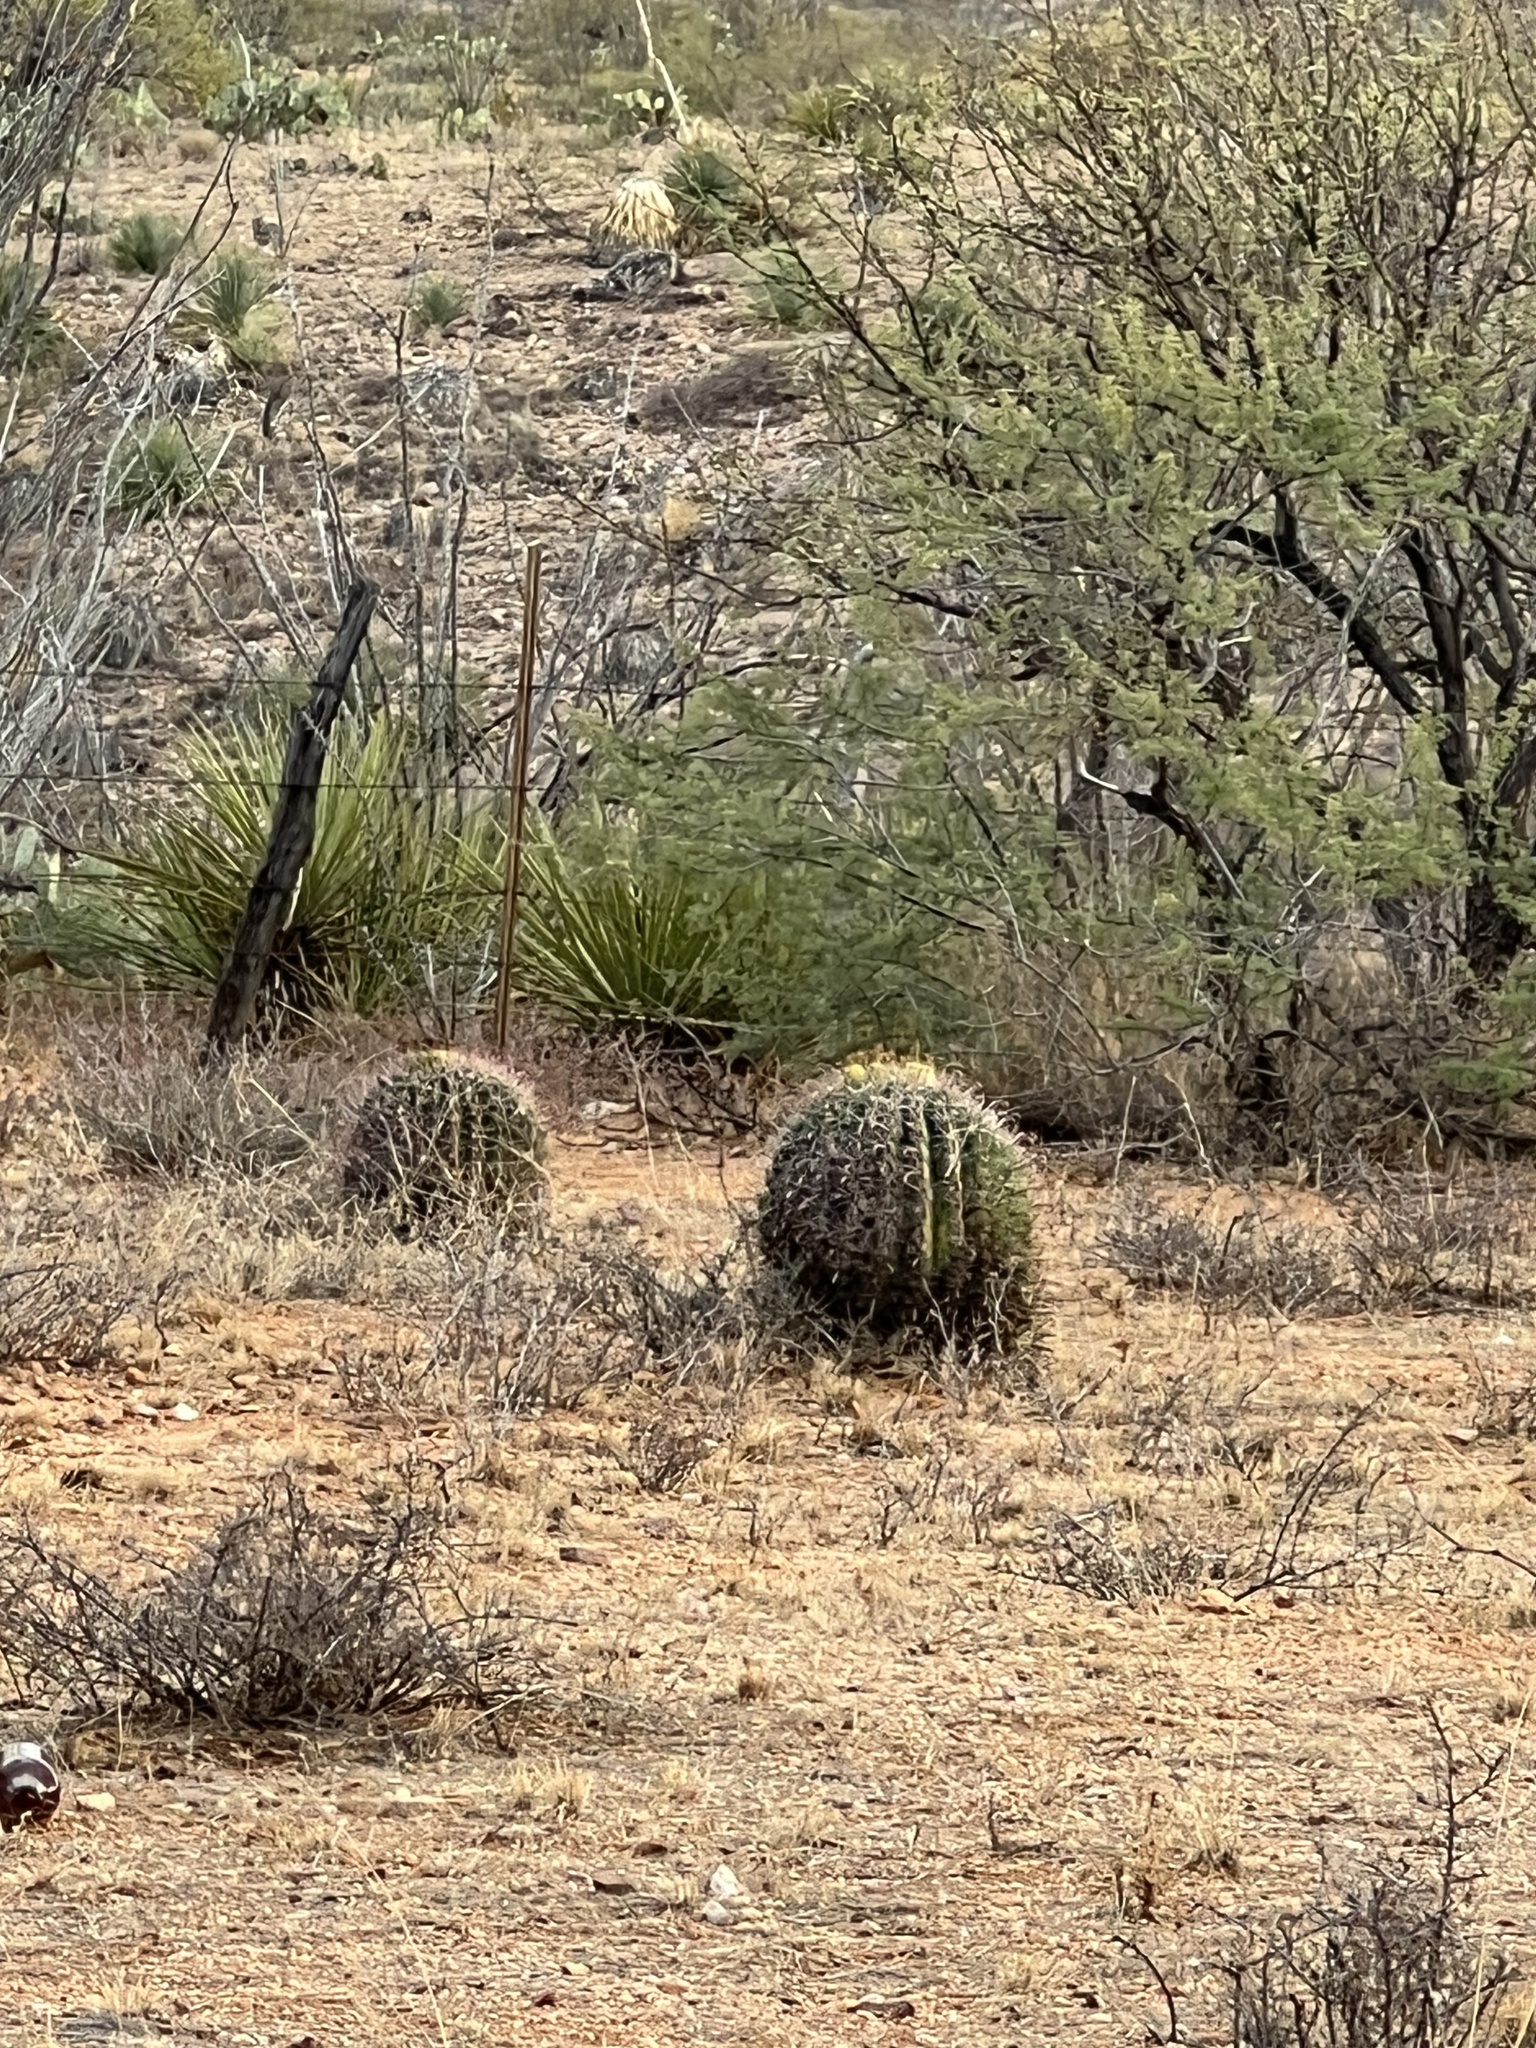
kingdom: Plantae
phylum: Tracheophyta
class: Magnoliopsida
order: Caryophyllales
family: Cactaceae
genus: Ferocactus
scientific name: Ferocactus wislizeni
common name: Candy barrel cactus
